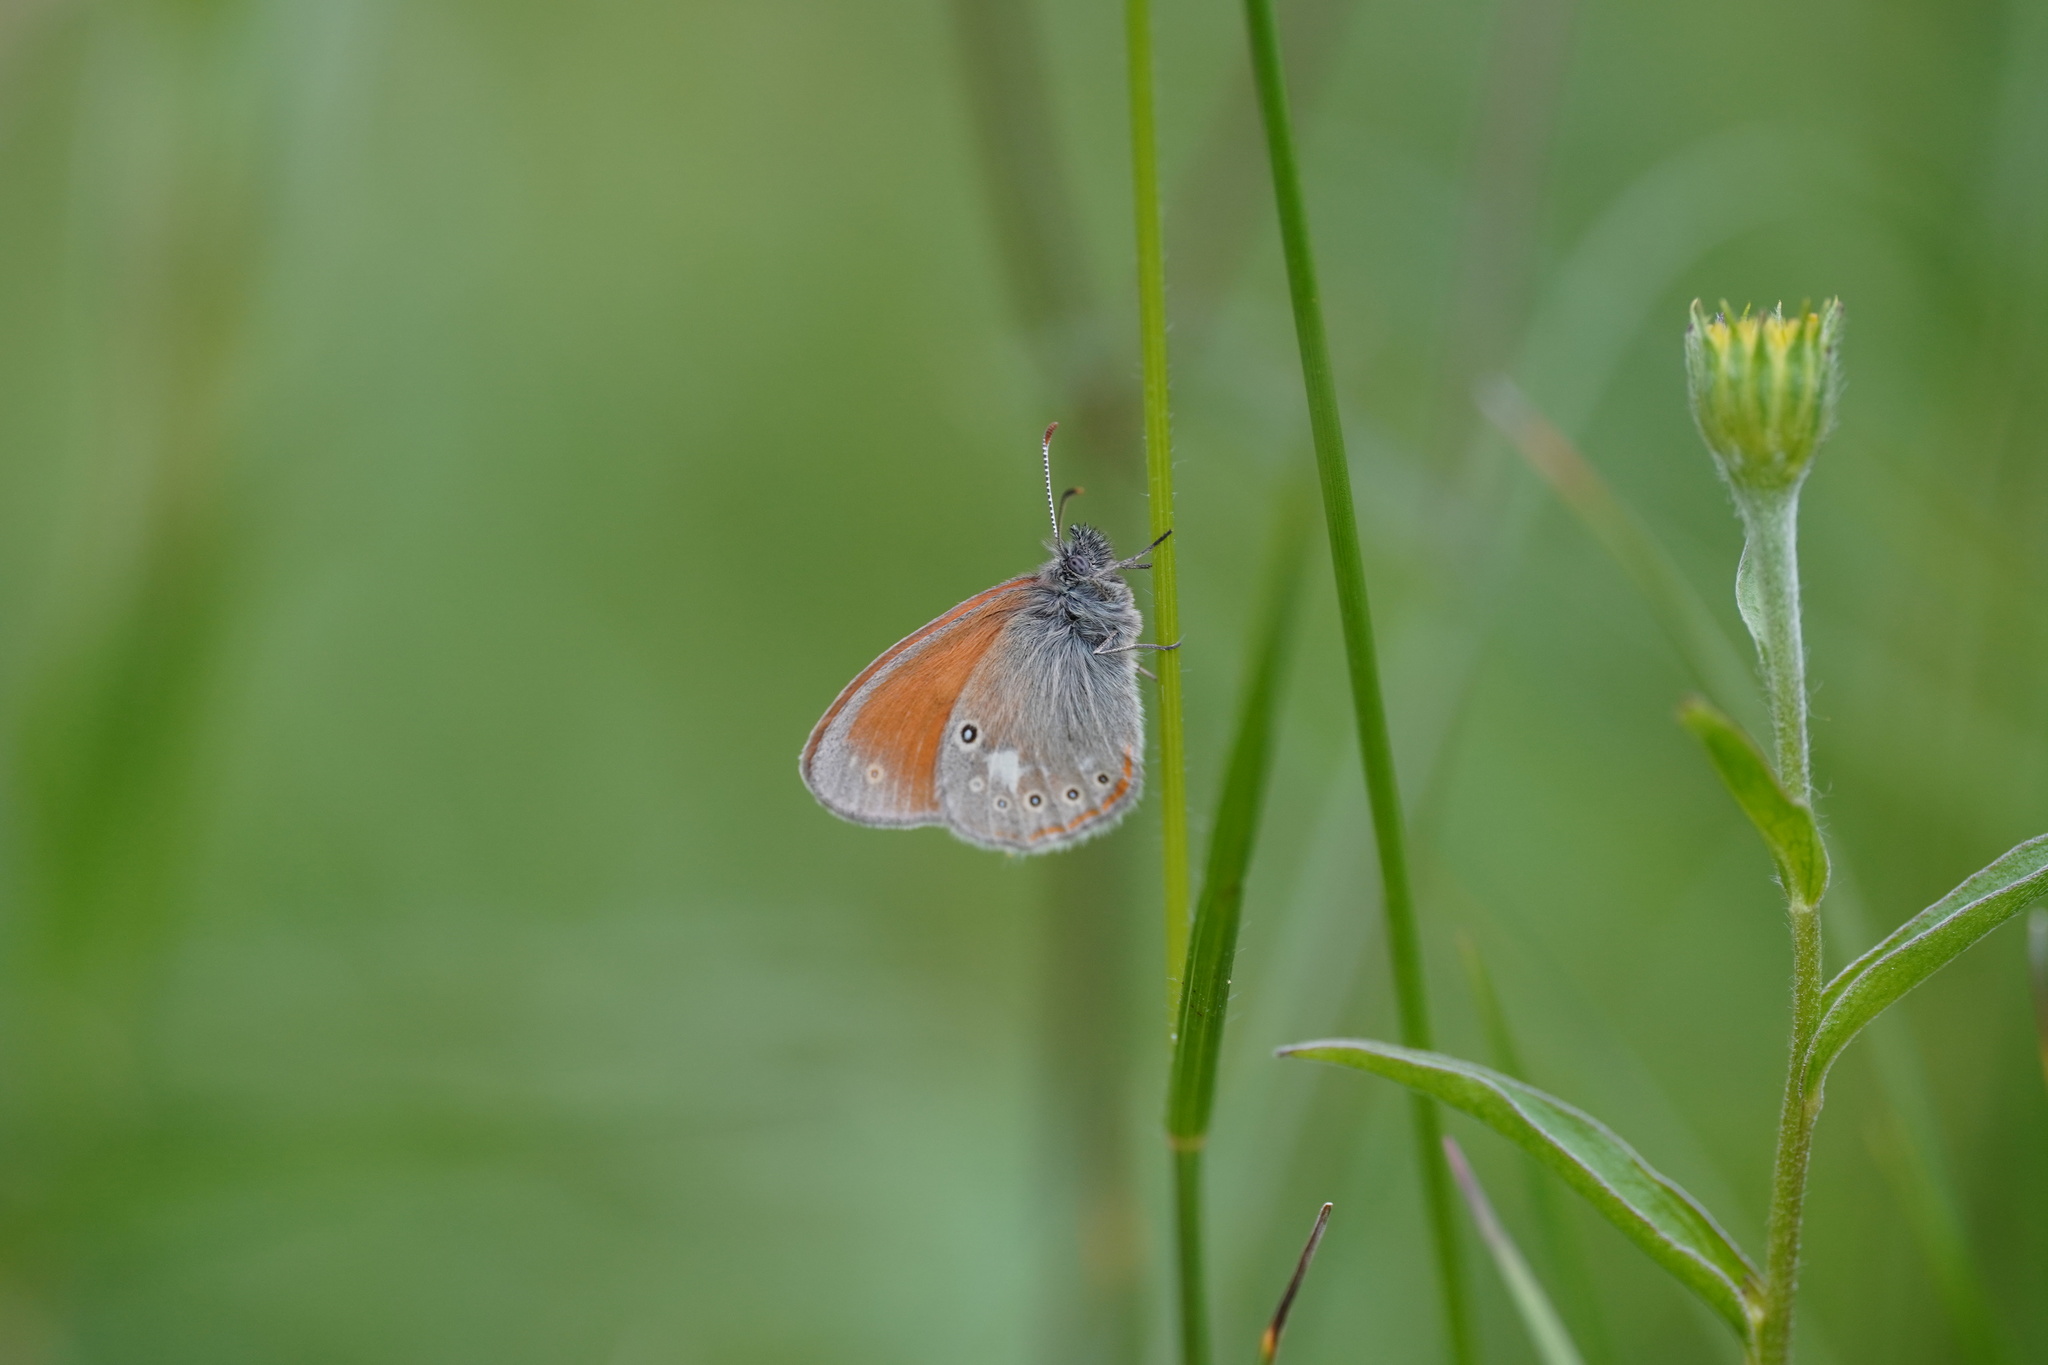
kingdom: Animalia
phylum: Arthropoda
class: Insecta
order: Lepidoptera
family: Nymphalidae
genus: Coenonympha
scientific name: Coenonympha iphis
